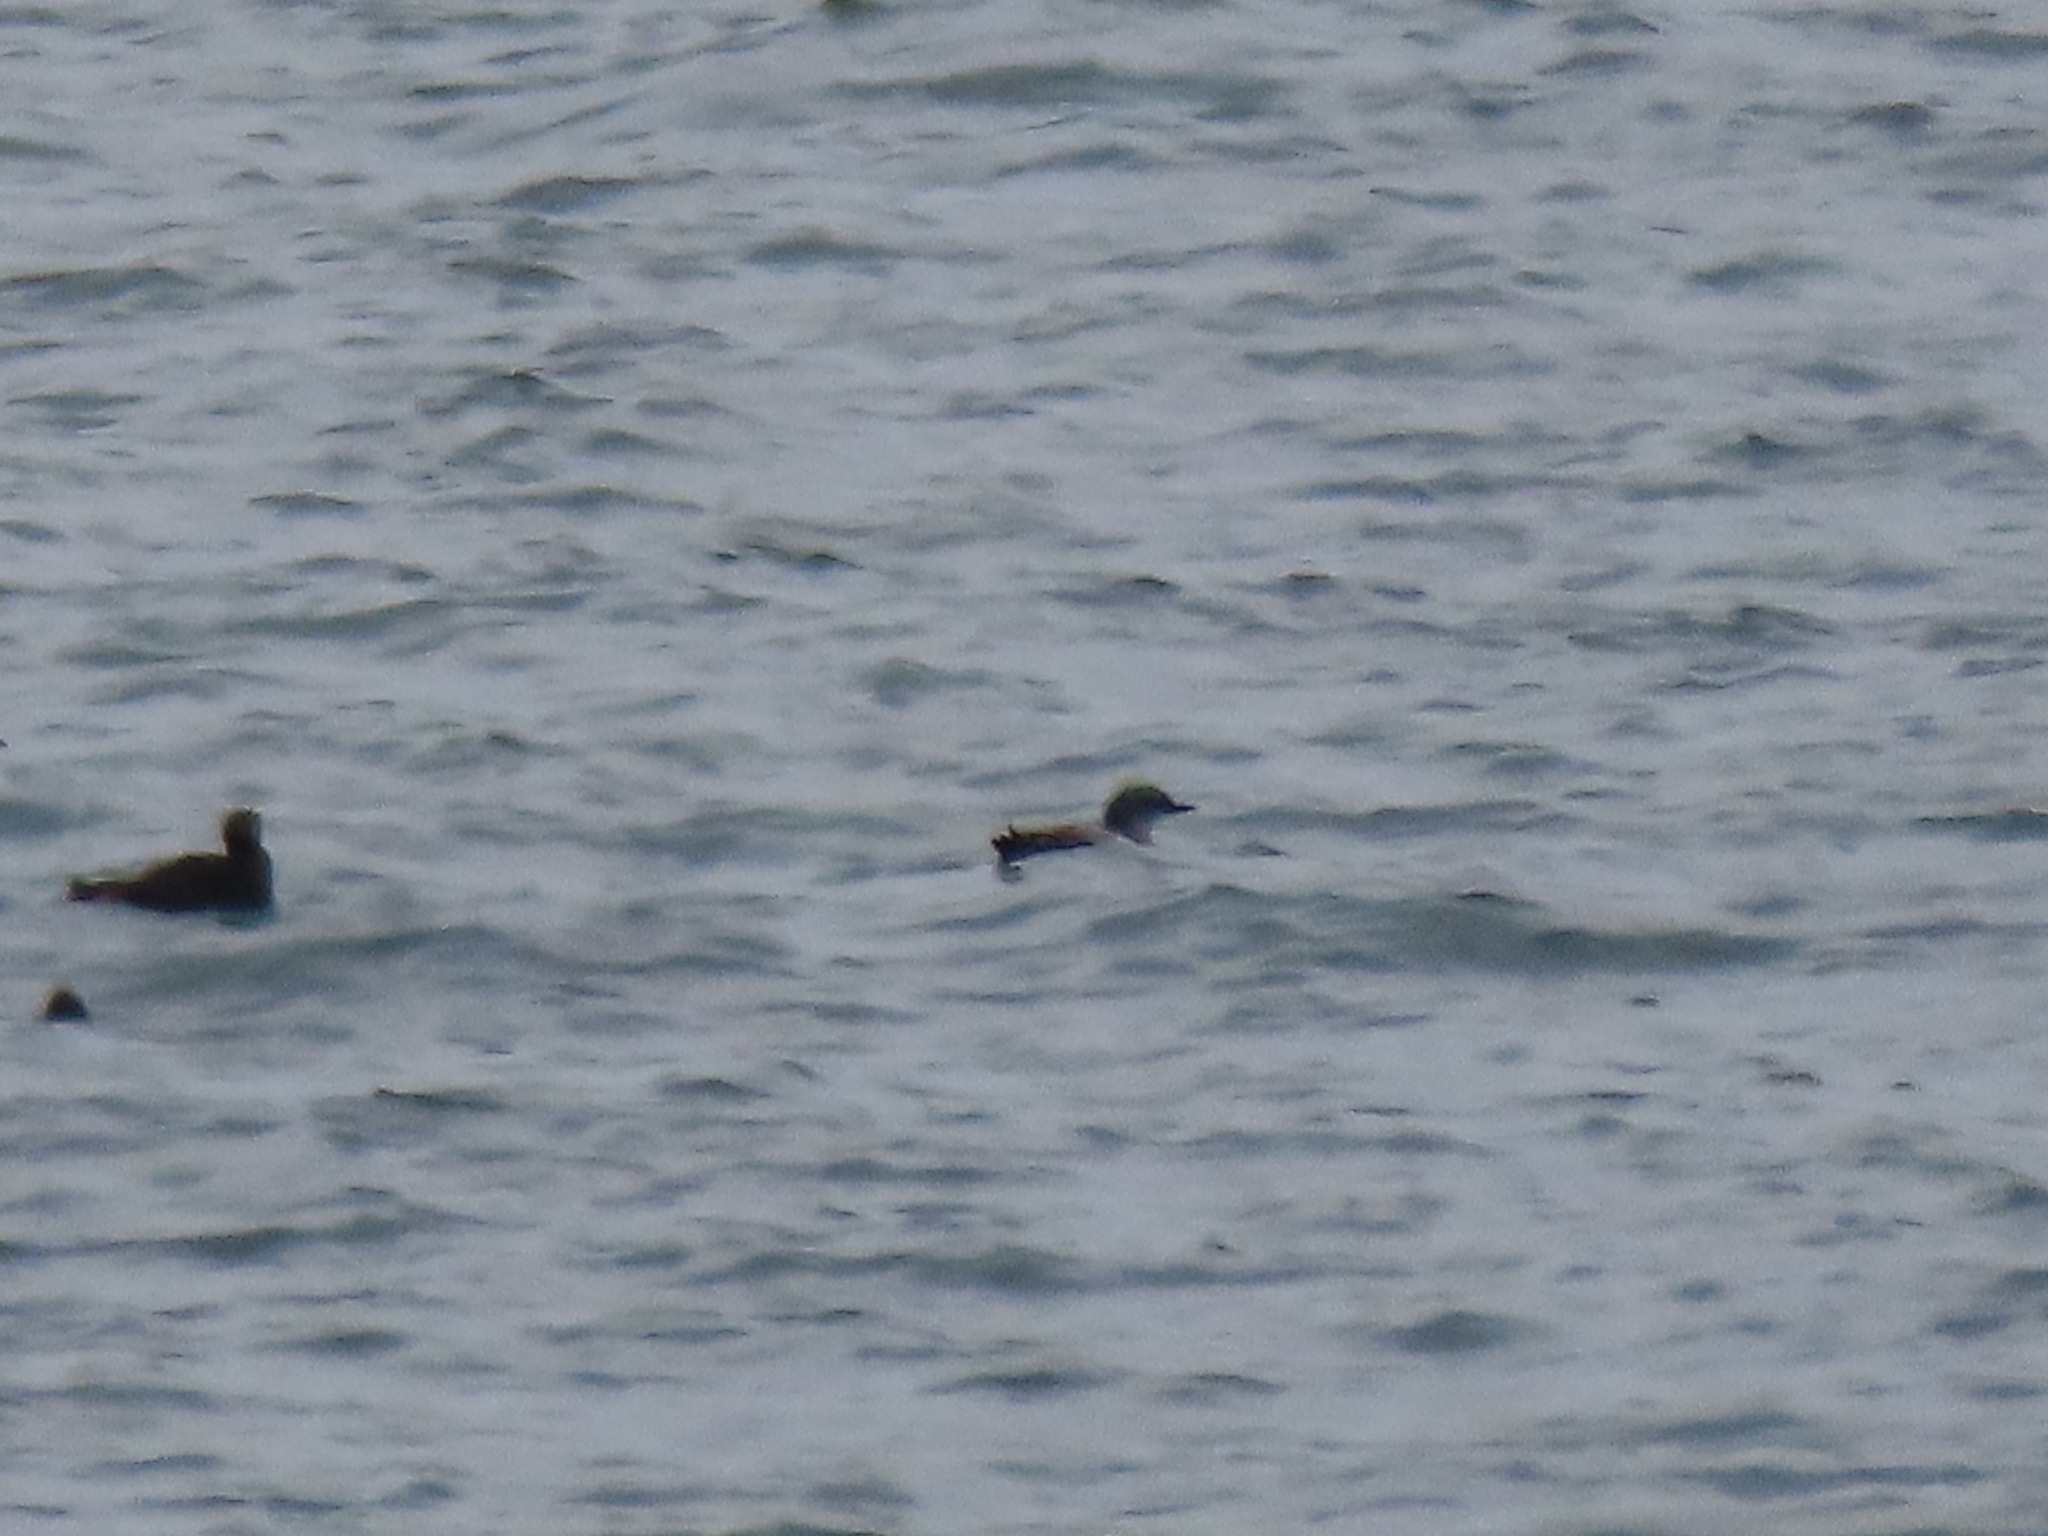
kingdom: Animalia
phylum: Chordata
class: Aves
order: Charadriiformes
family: Alcidae
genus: Cepphus
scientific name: Cepphus columba
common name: Pigeon guillemot
